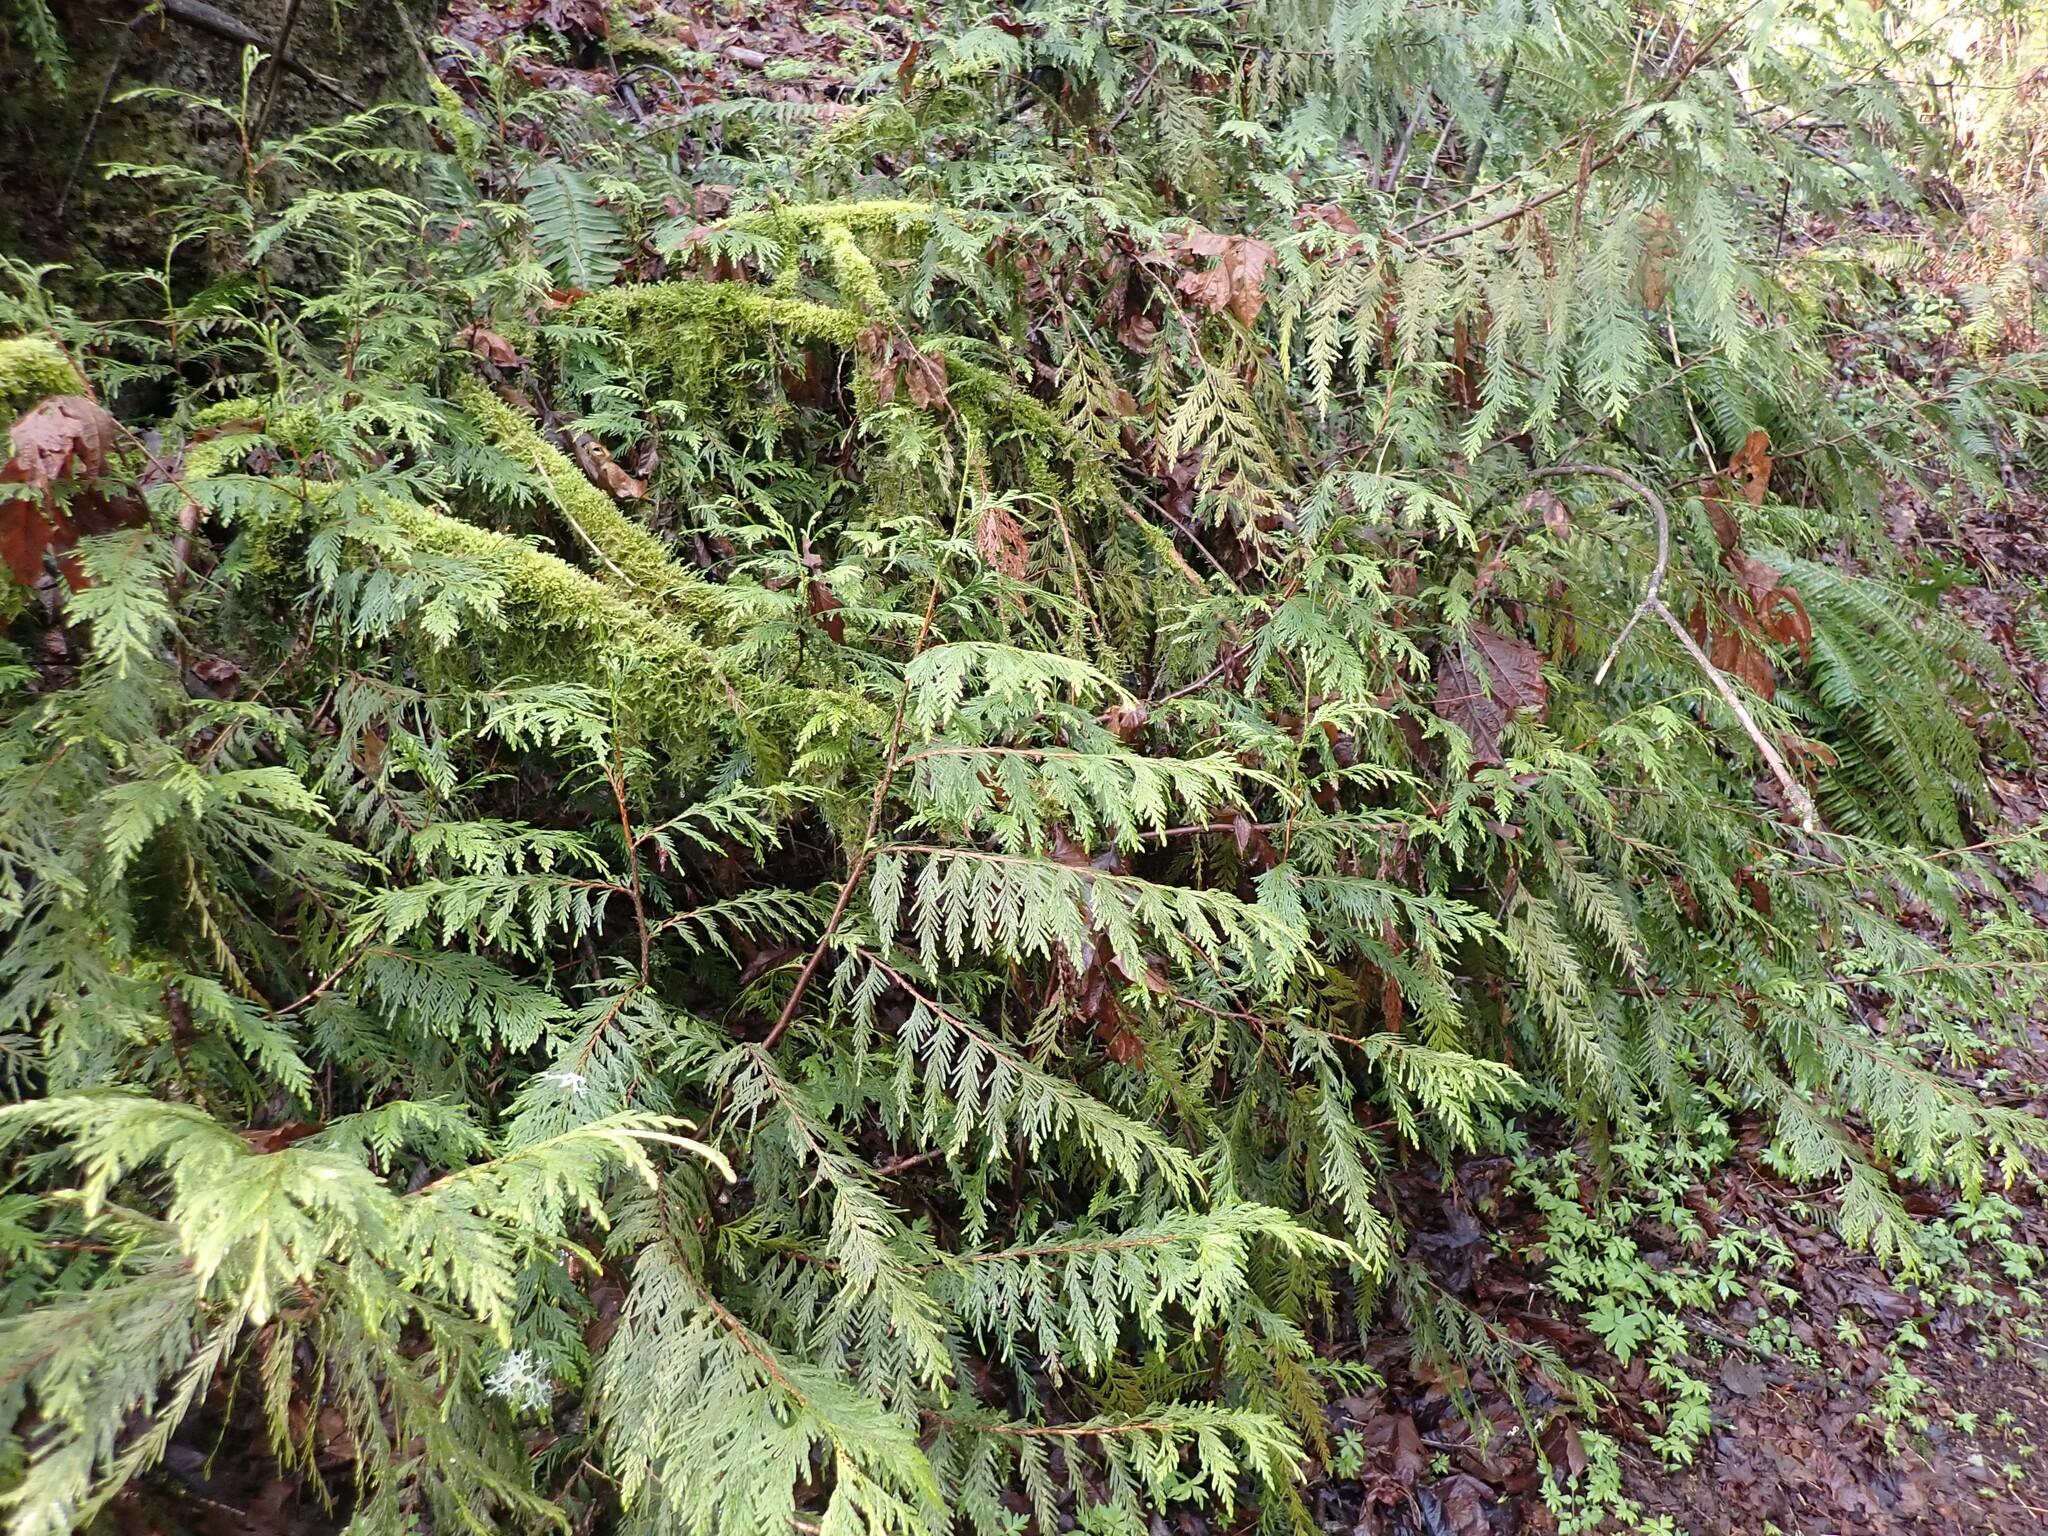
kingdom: Plantae
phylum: Tracheophyta
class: Pinopsida
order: Pinales
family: Cupressaceae
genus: Thuja
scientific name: Thuja plicata
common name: Western red-cedar
